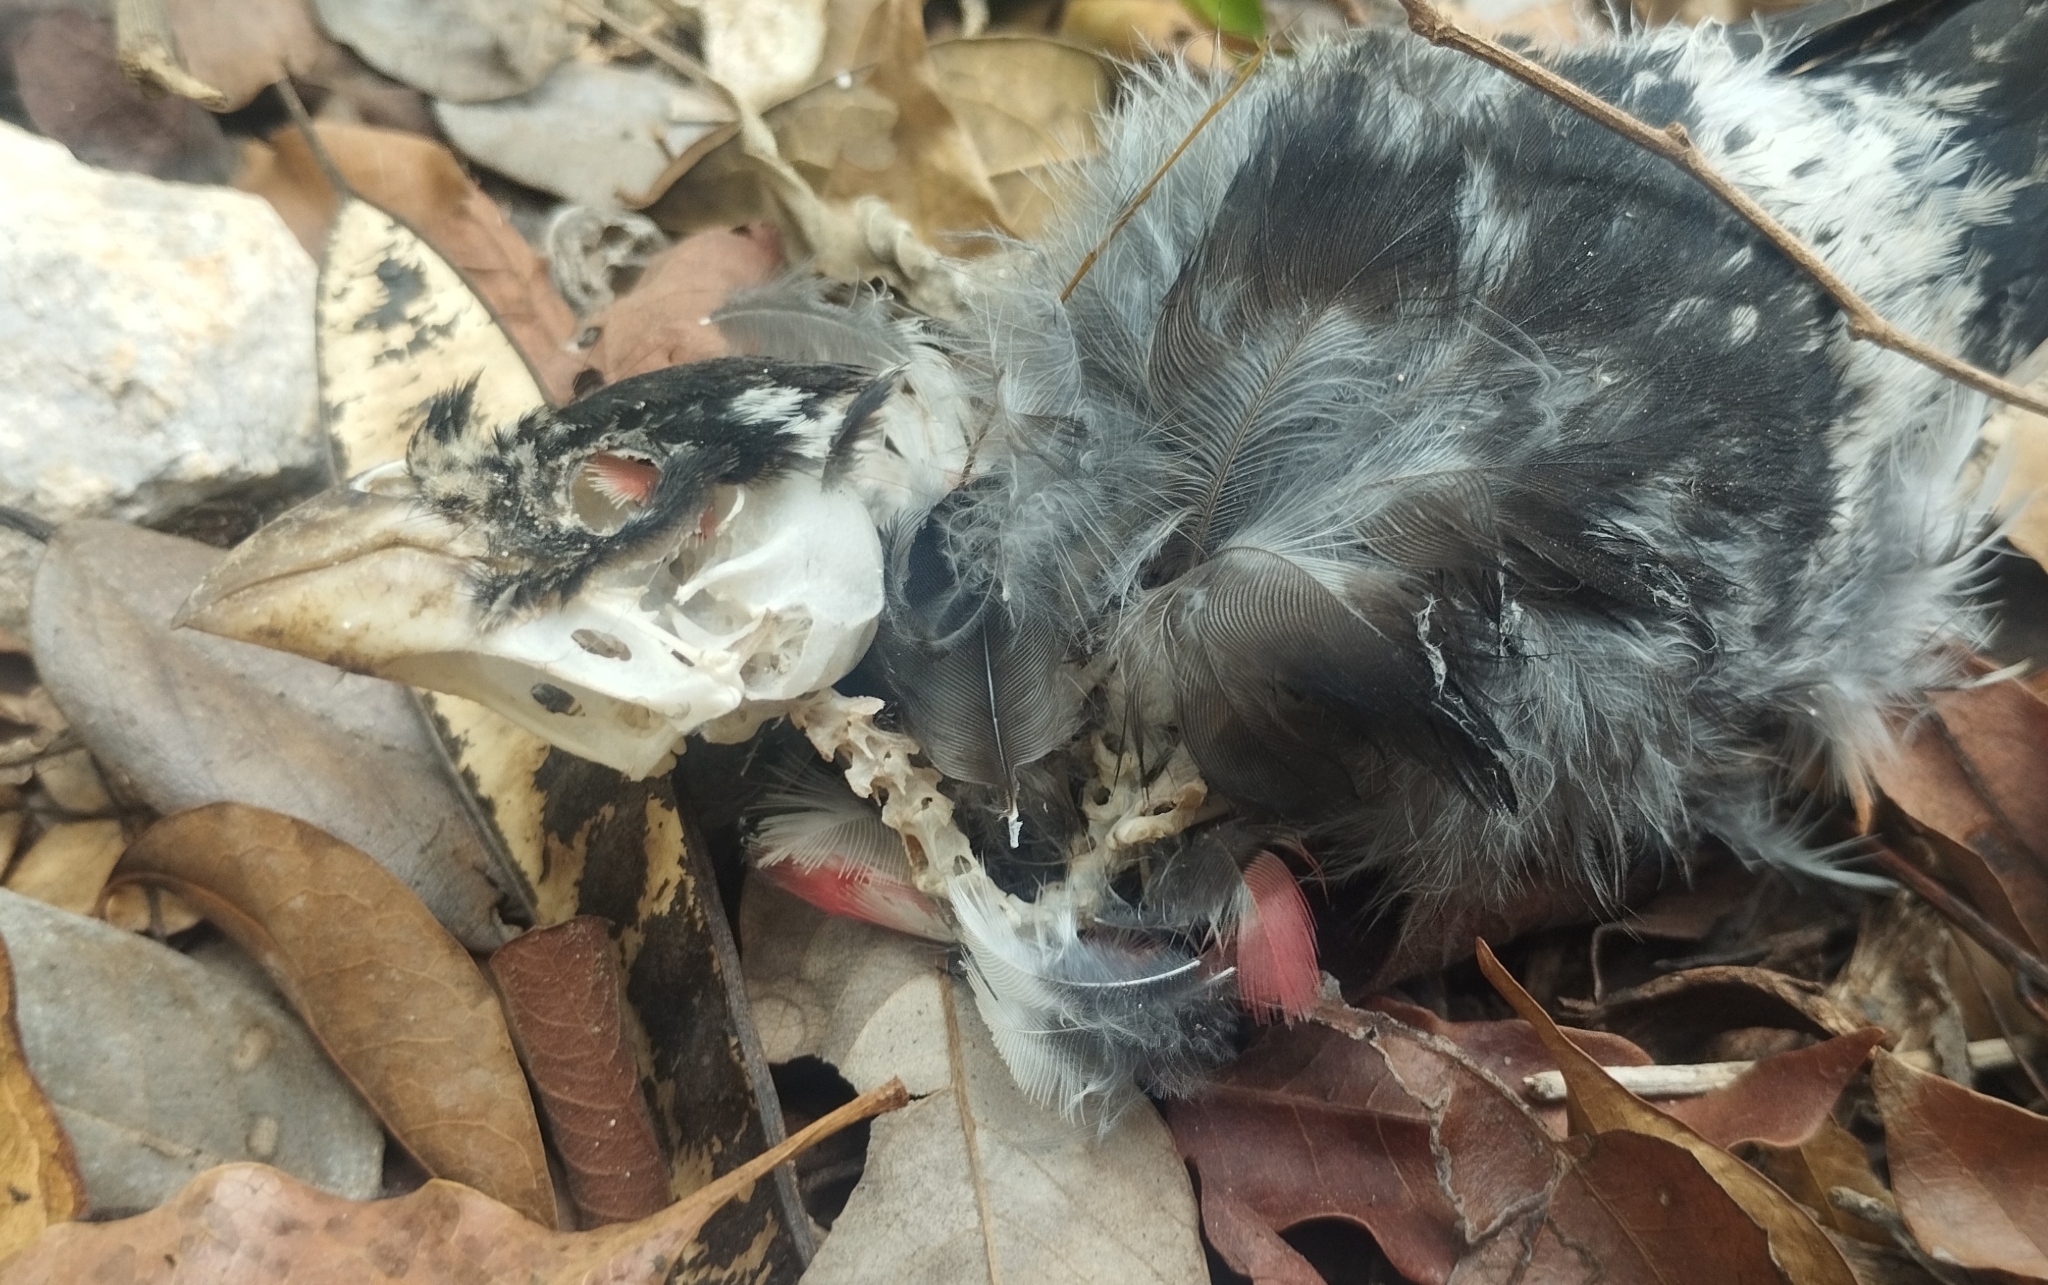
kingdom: Animalia
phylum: Chordata
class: Aves
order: Passeriformes
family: Cardinalidae
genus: Pheucticus
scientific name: Pheucticus ludovicianus
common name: Rose-breasted grosbeak
